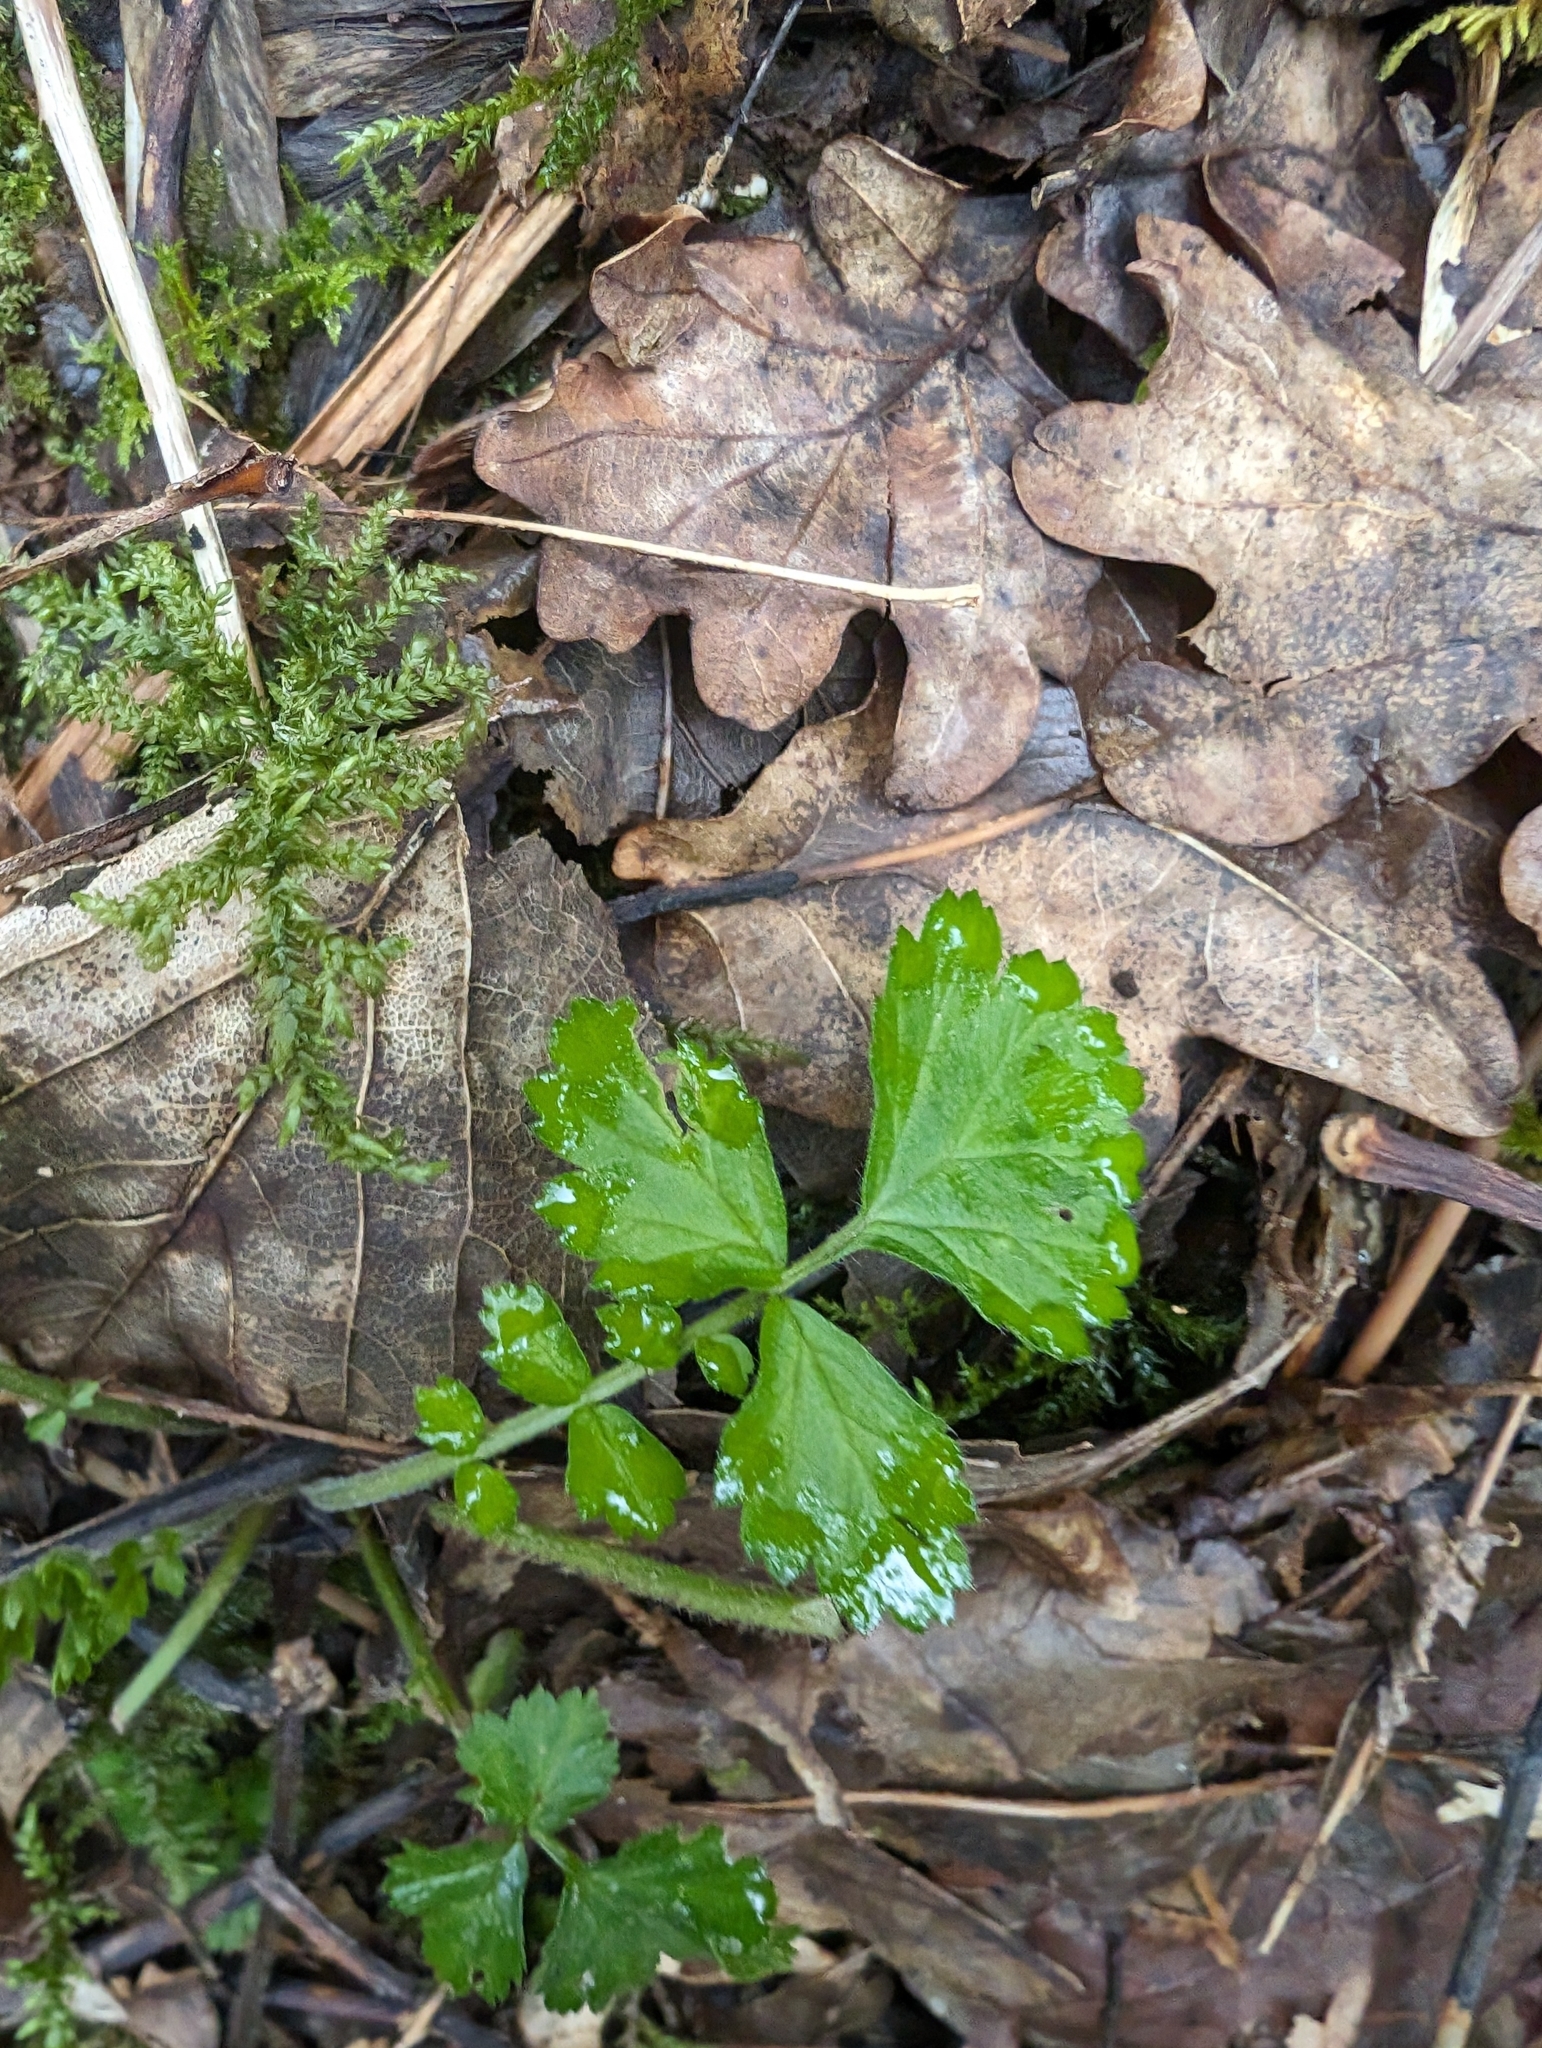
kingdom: Plantae
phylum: Tracheophyta
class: Magnoliopsida
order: Rosales
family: Rosaceae
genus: Geum
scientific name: Geum urbanum
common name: Wood avens
